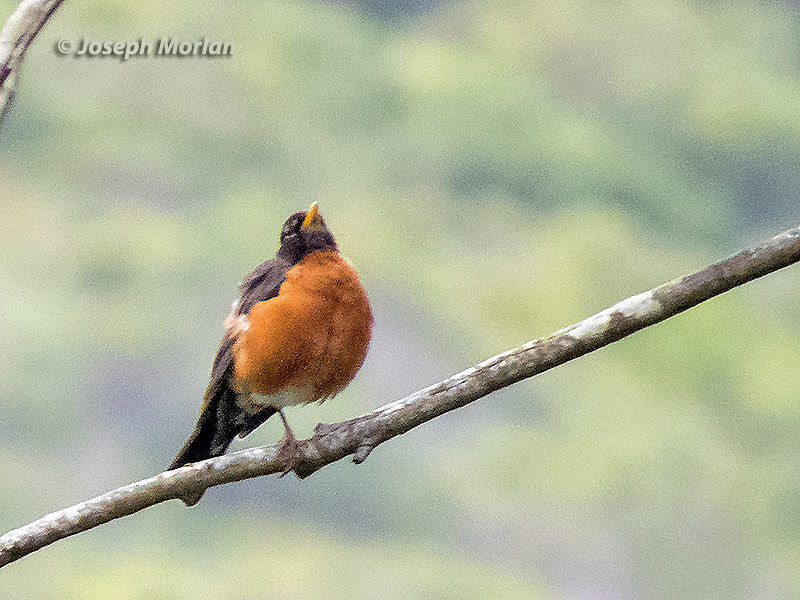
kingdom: Animalia
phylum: Chordata
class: Aves
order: Passeriformes
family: Turdidae
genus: Turdus
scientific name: Turdus migratorius
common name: American robin
